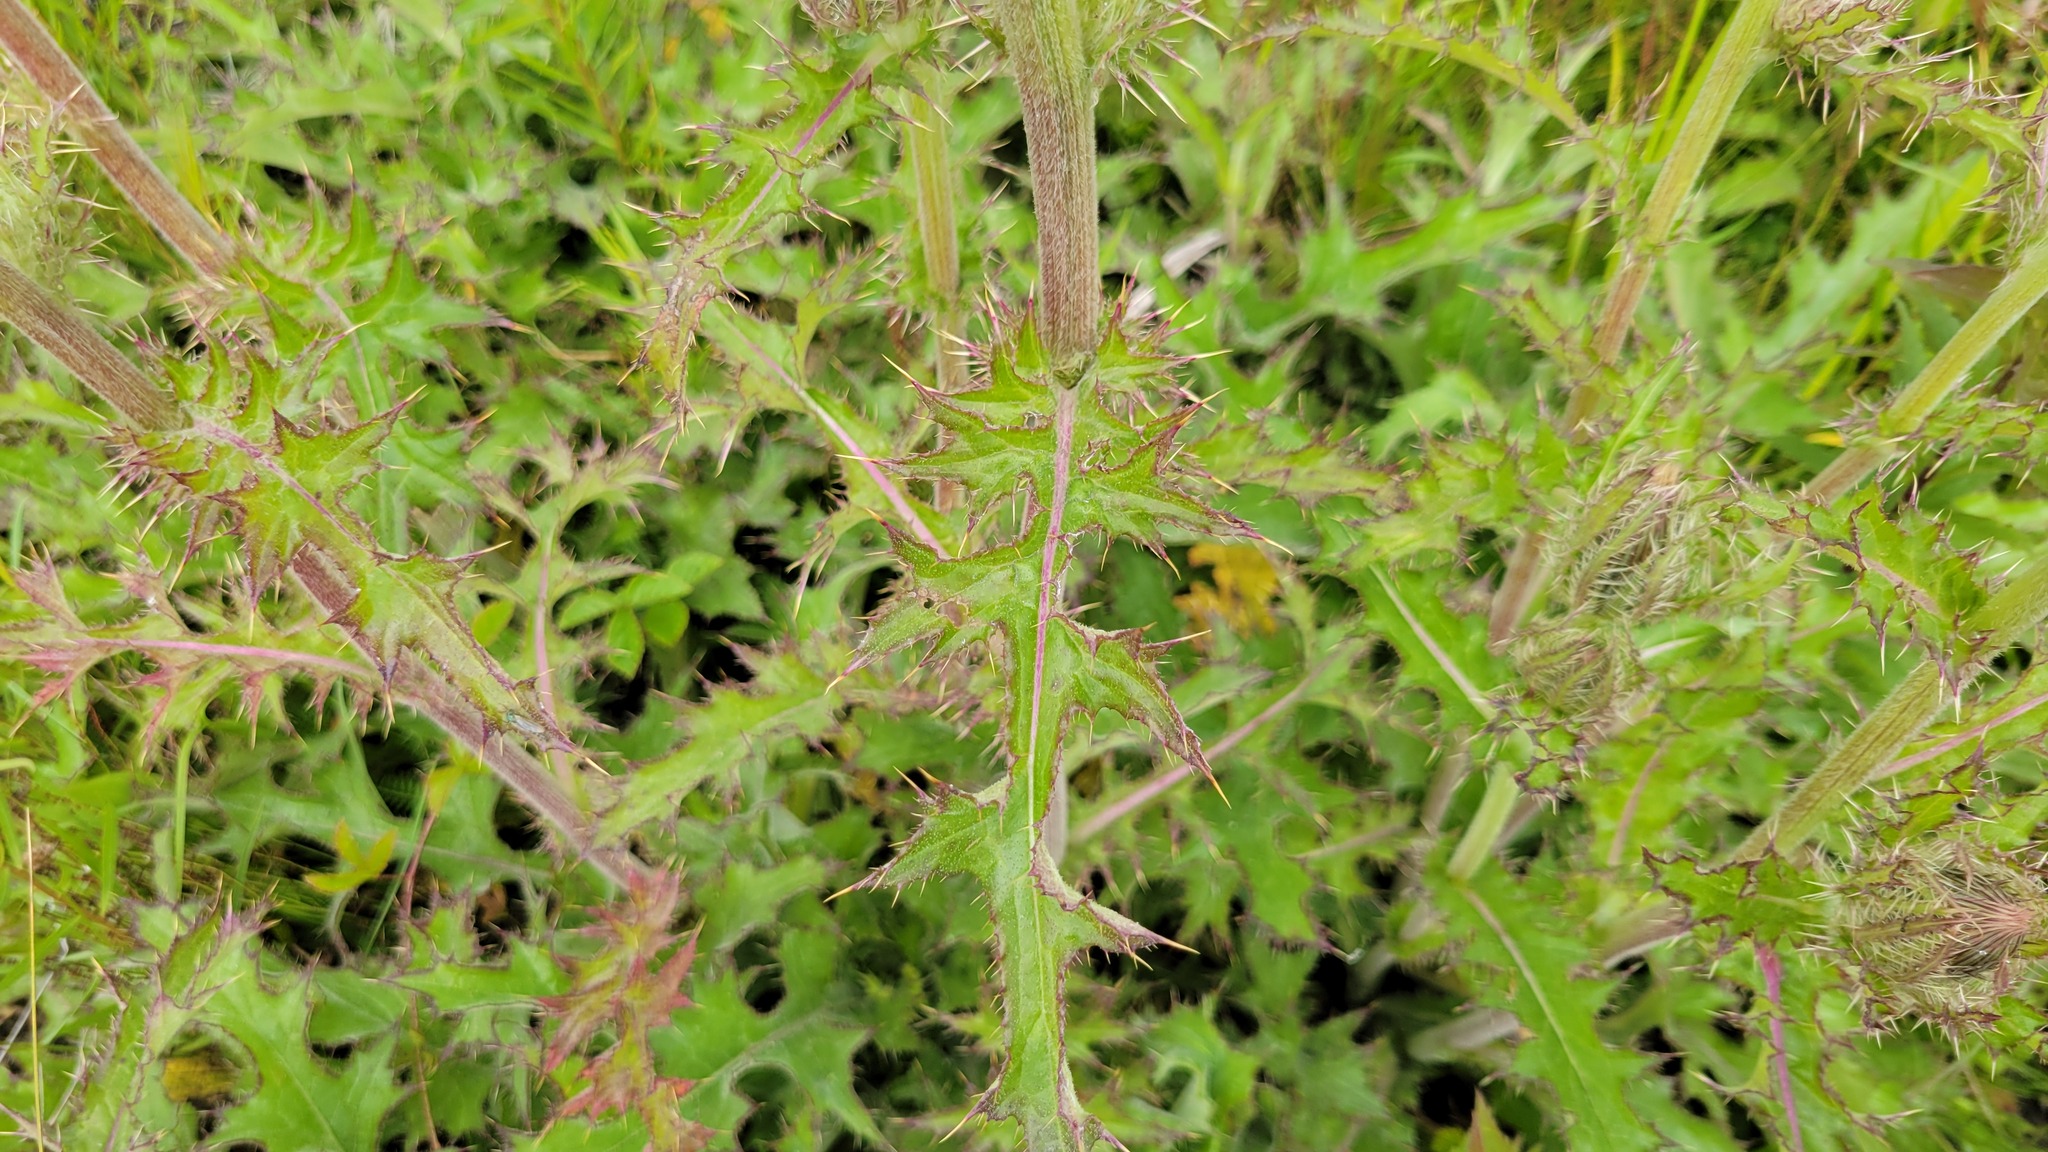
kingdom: Plantae
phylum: Tracheophyta
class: Magnoliopsida
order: Asterales
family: Asteraceae
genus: Cirsium
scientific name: Cirsium horridulum
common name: Bristly thistle
